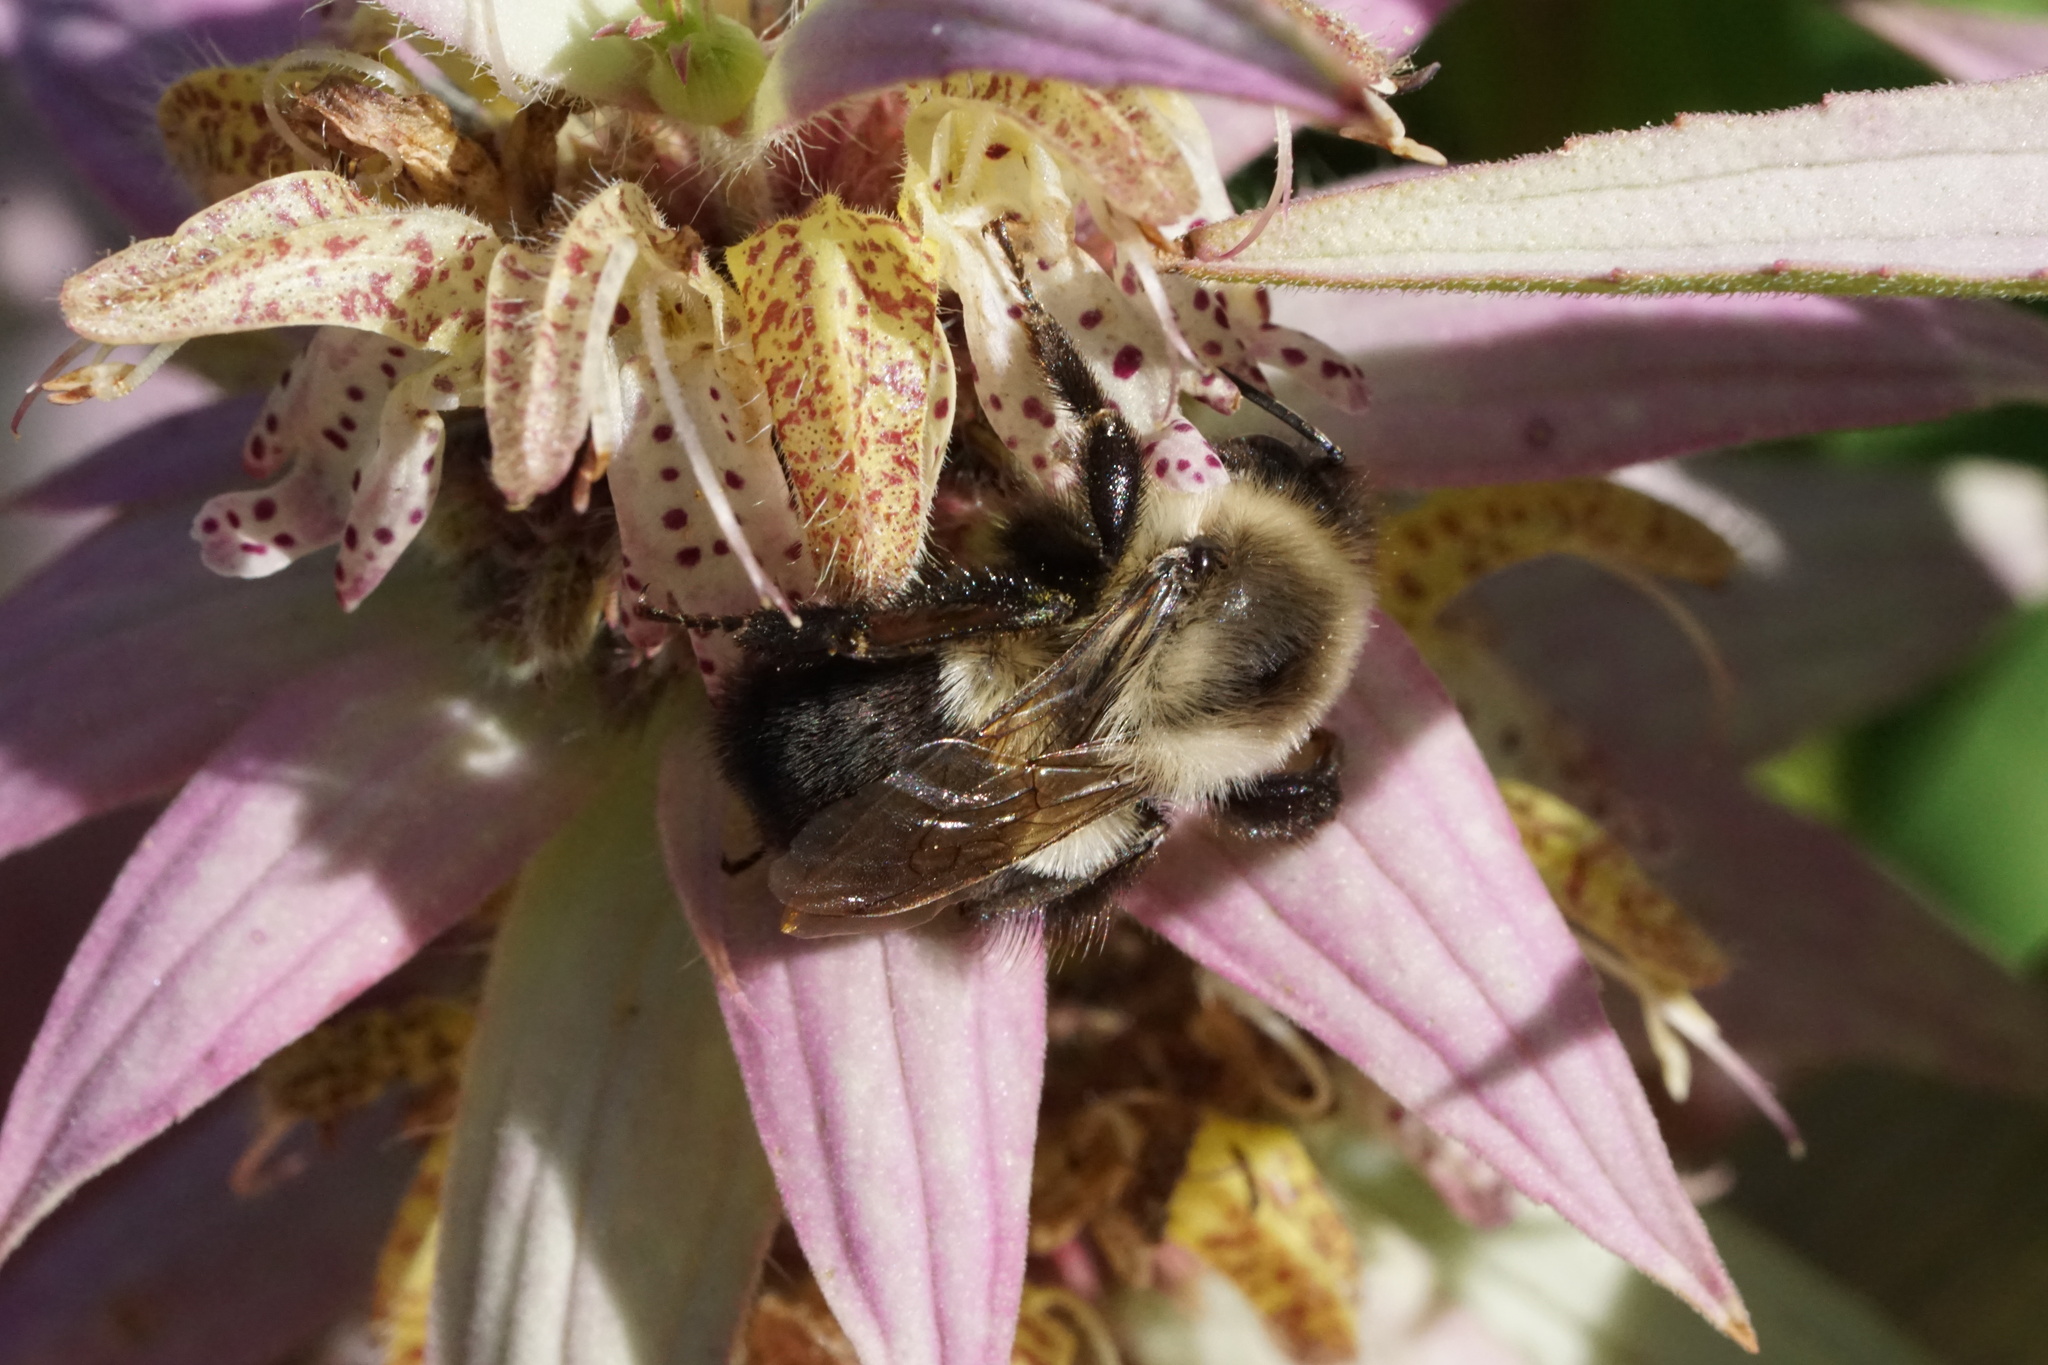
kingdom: Animalia
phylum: Arthropoda
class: Insecta
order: Hymenoptera
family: Apidae
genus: Bombus
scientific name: Bombus impatiens
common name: Common eastern bumble bee
